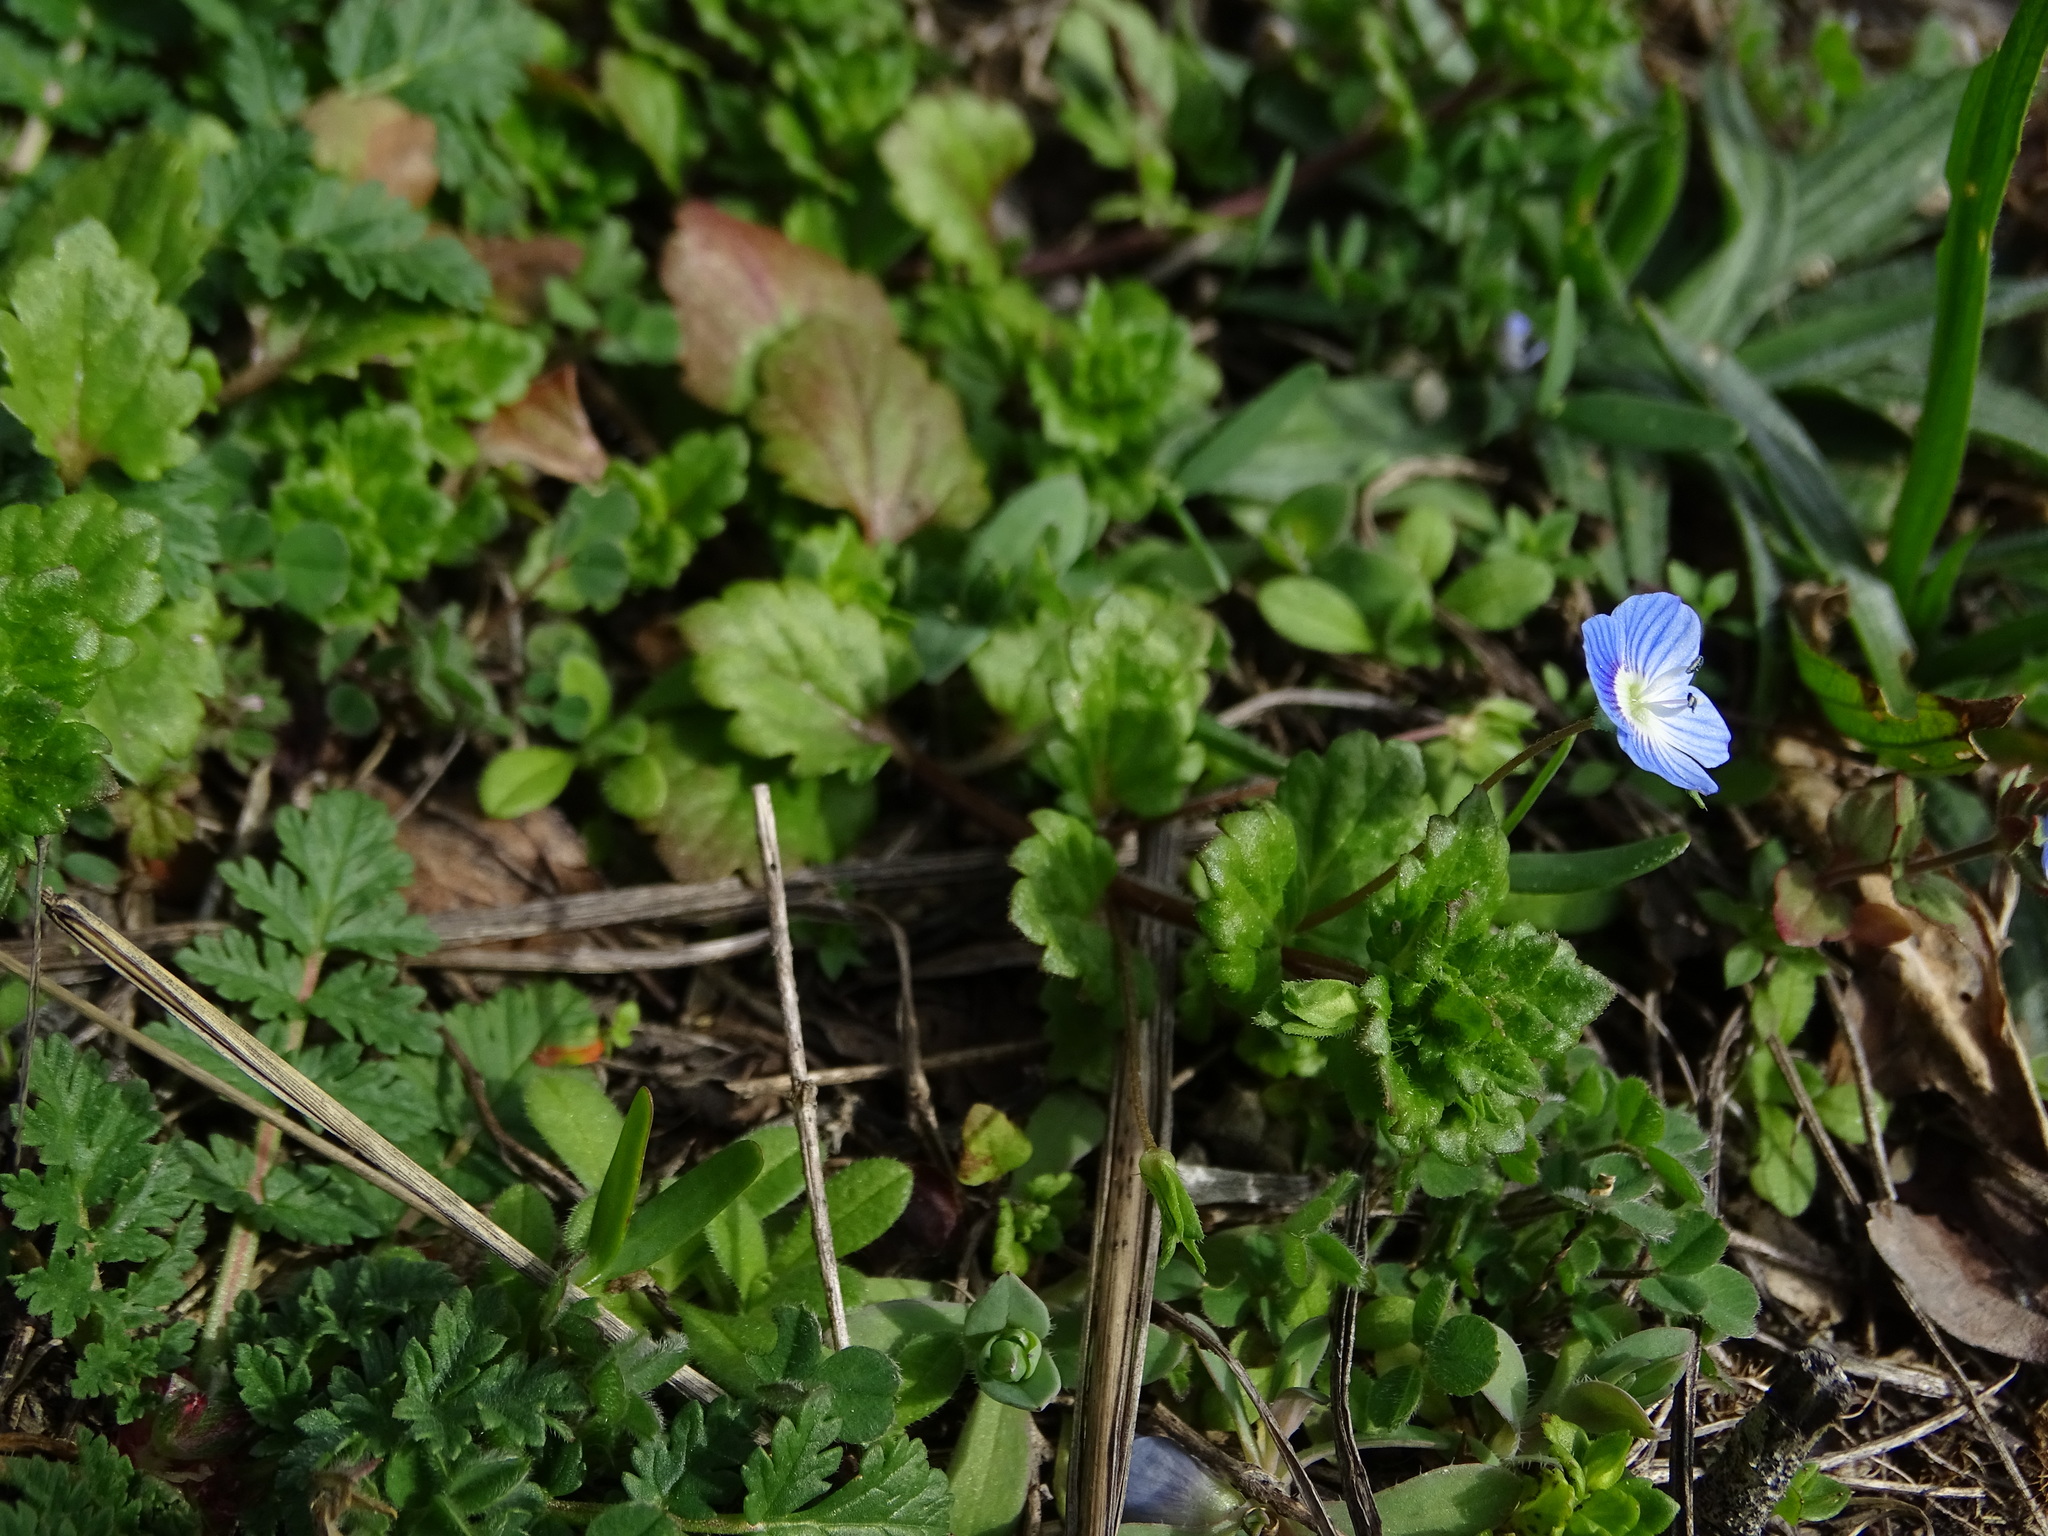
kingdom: Plantae
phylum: Tracheophyta
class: Magnoliopsida
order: Lamiales
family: Plantaginaceae
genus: Veronica
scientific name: Veronica persica
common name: Common field-speedwell
